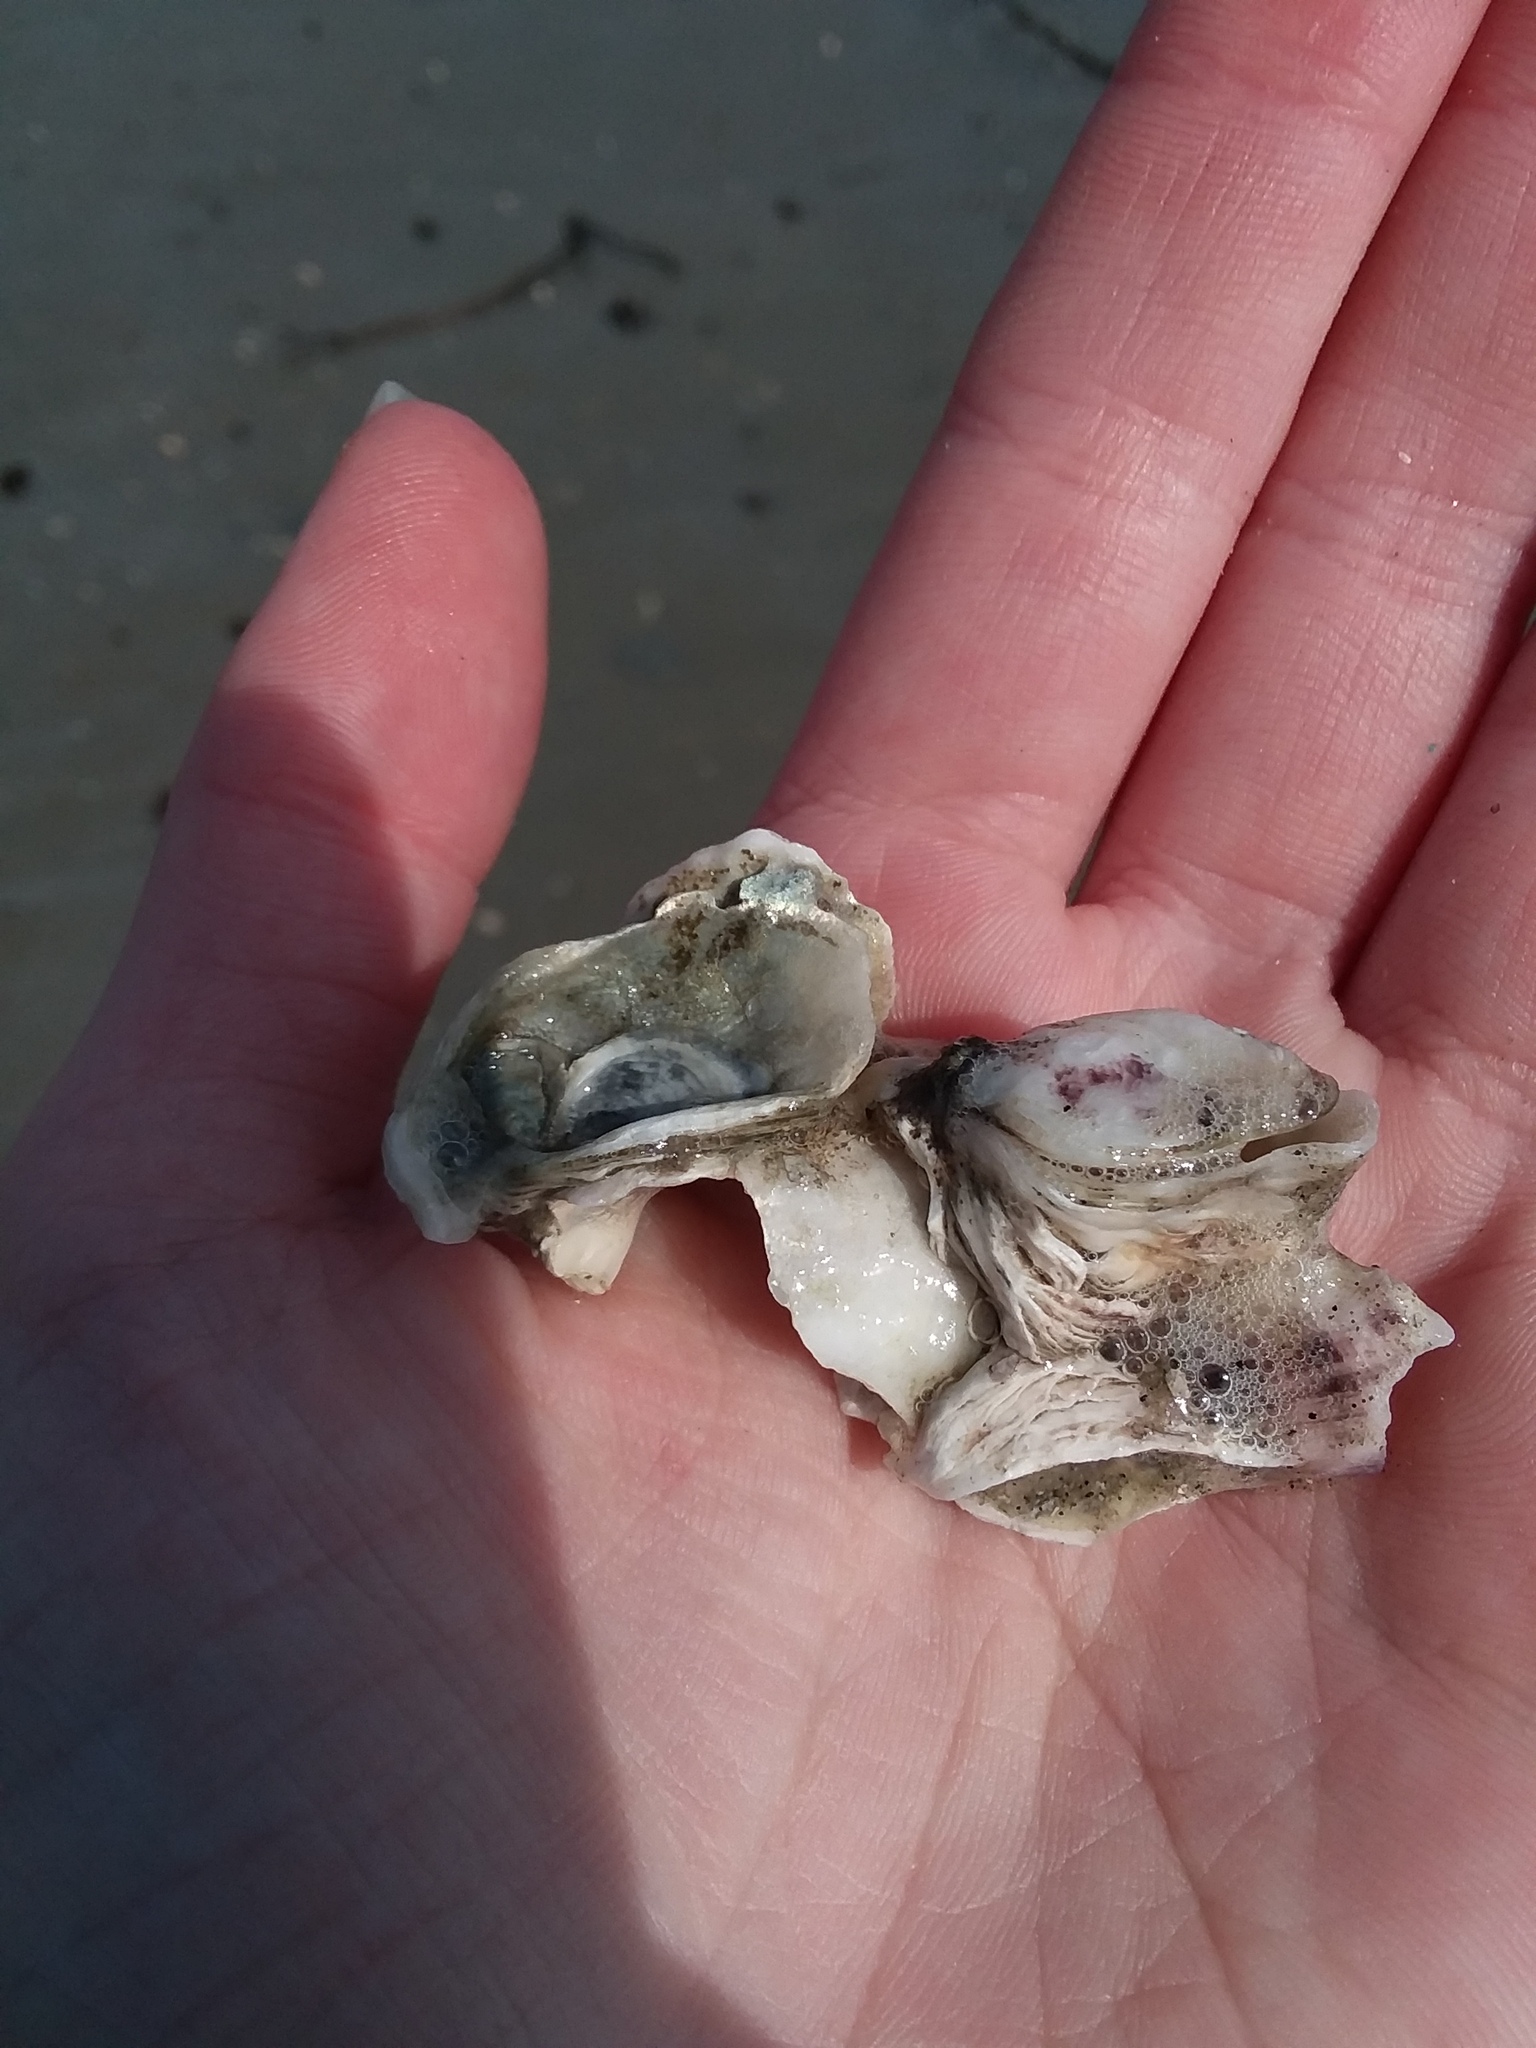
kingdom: Animalia
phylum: Mollusca
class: Bivalvia
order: Ostreida
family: Ostreidae
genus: Crassostrea
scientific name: Crassostrea virginica
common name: American oyster
